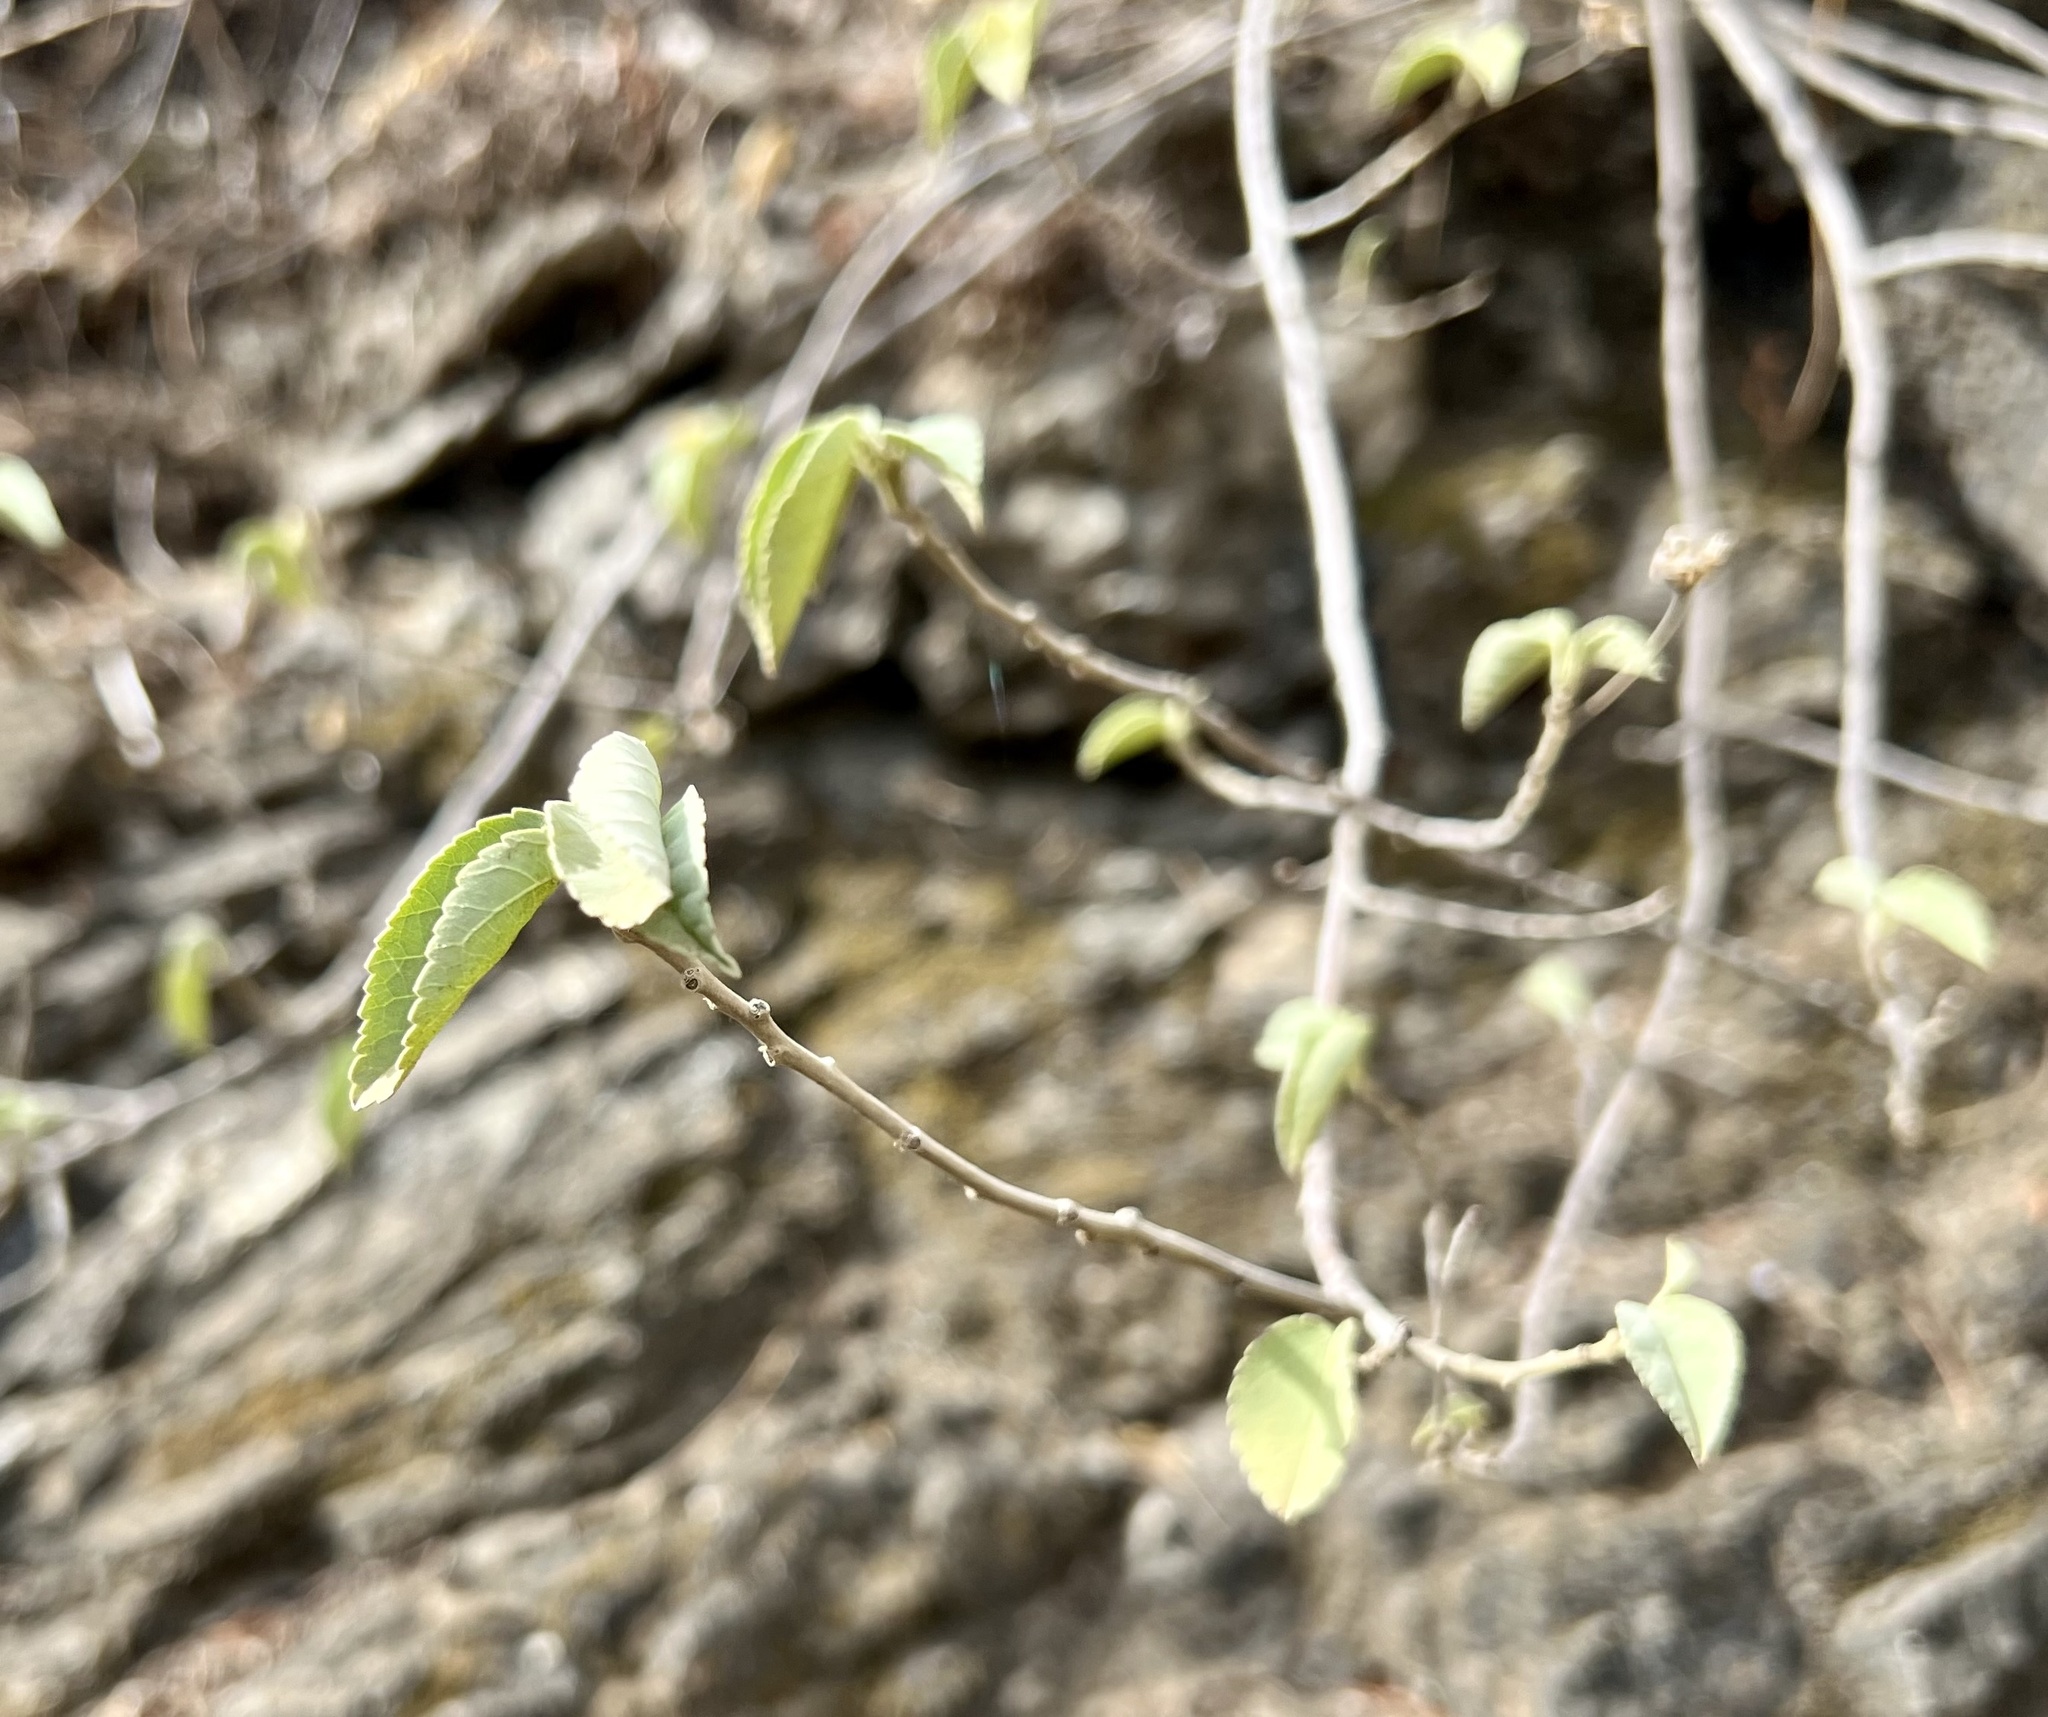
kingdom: Plantae
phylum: Tracheophyta
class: Magnoliopsida
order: Malvales
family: Malvaceae
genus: Abutilon
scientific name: Abutilon incanum
